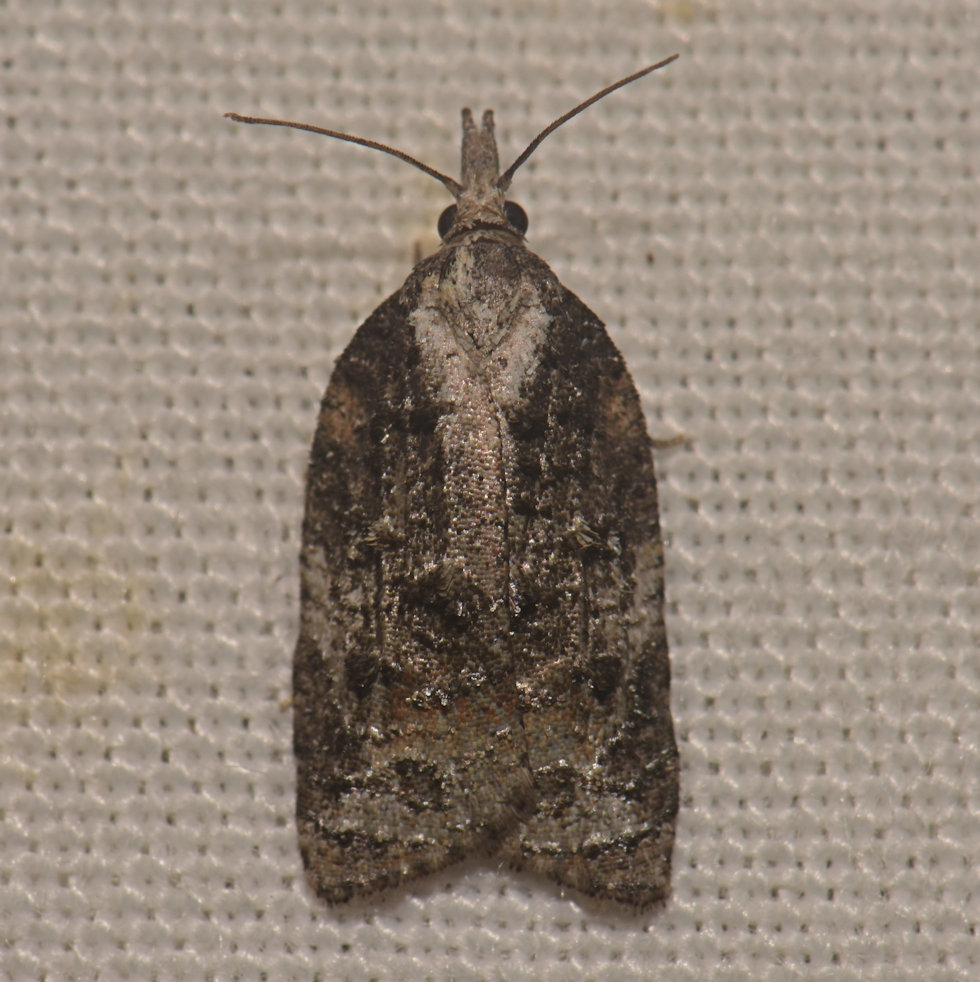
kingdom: Animalia
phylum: Arthropoda
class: Insecta
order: Lepidoptera
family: Tortricidae
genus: Platynota
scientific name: Platynota exasperatana
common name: Exasperating platynota moth
